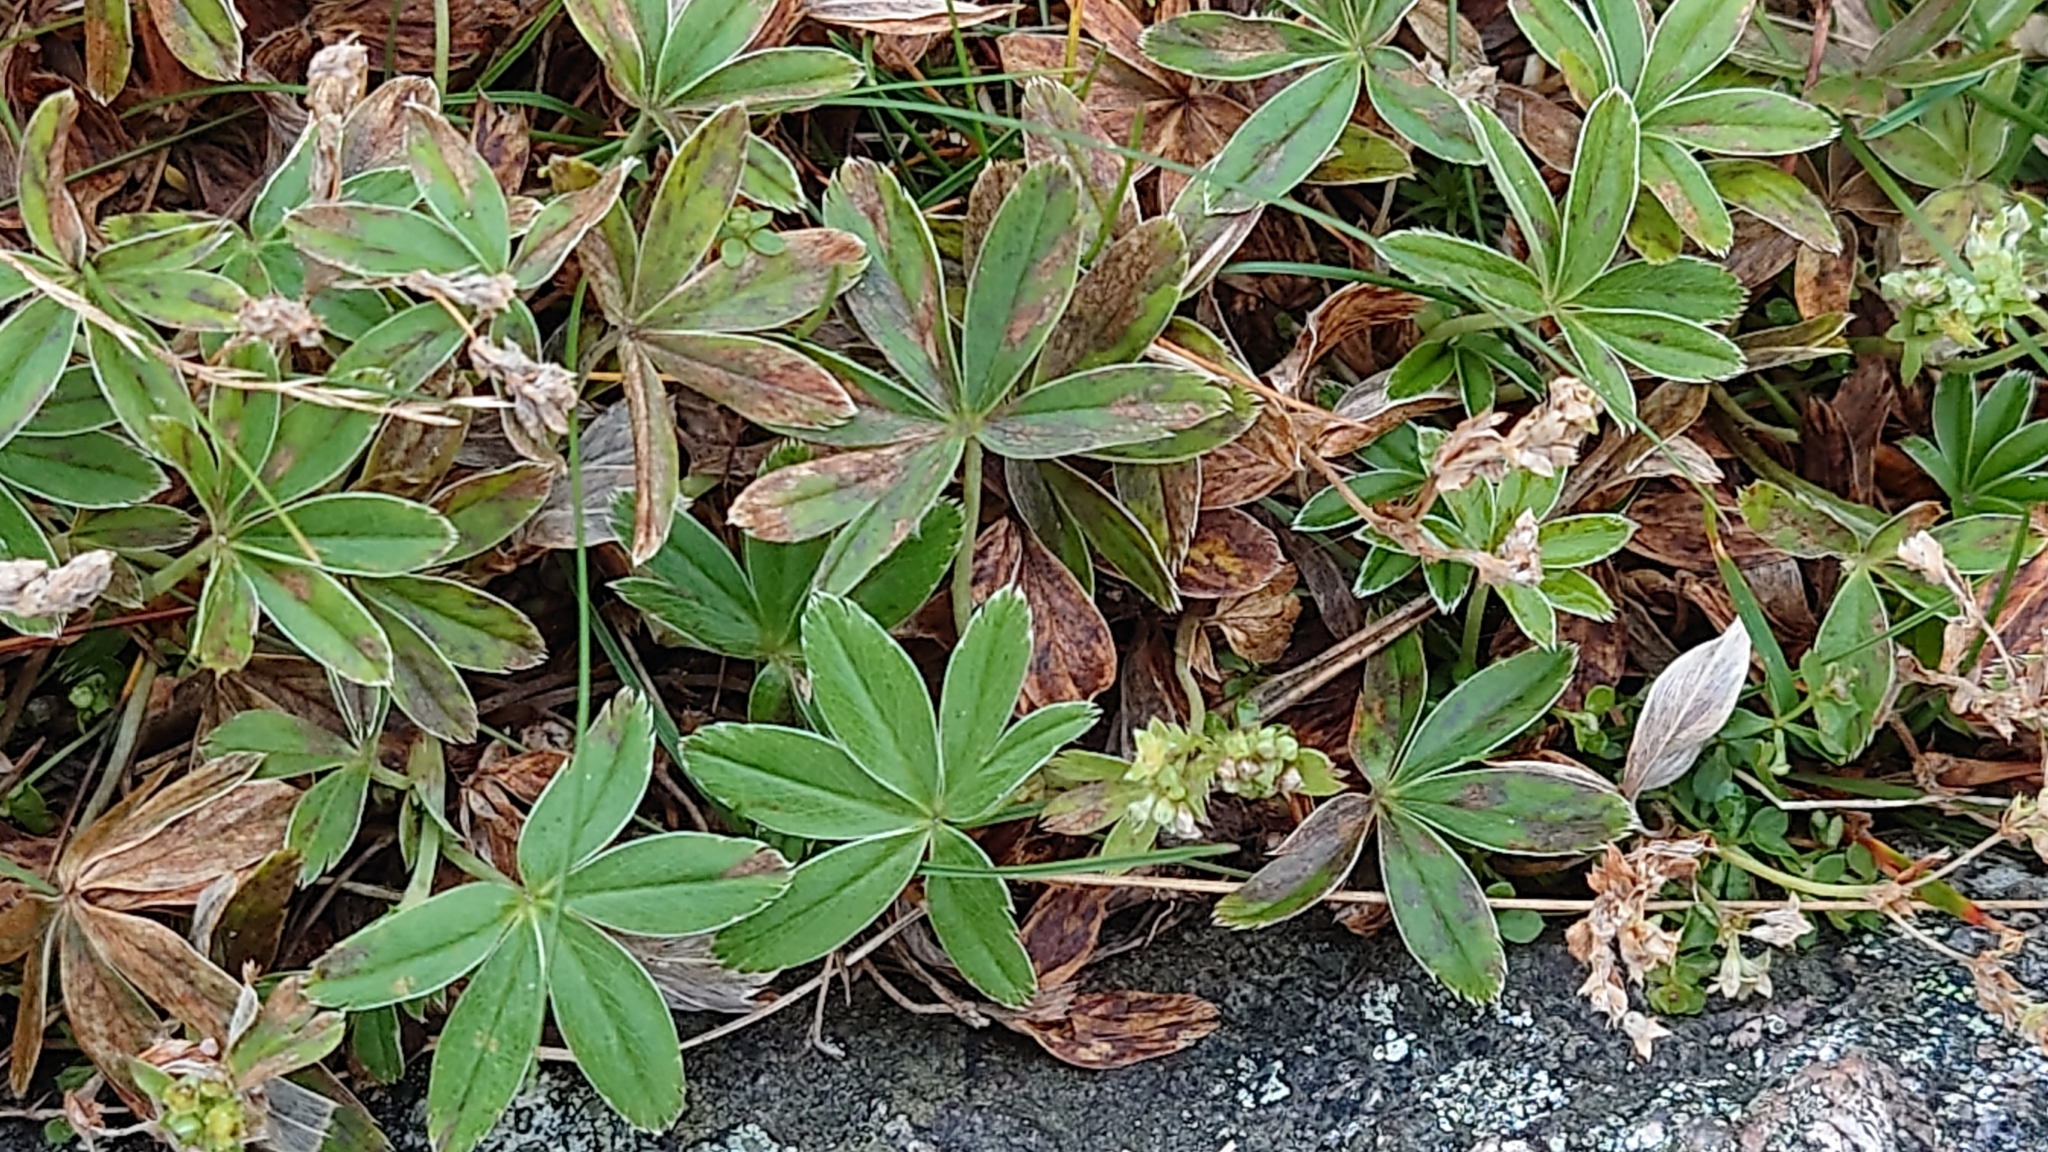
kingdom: Plantae
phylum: Tracheophyta
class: Magnoliopsida
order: Rosales
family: Rosaceae
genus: Alchemilla
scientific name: Alchemilla alpina
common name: Alpine lady's-mantle
